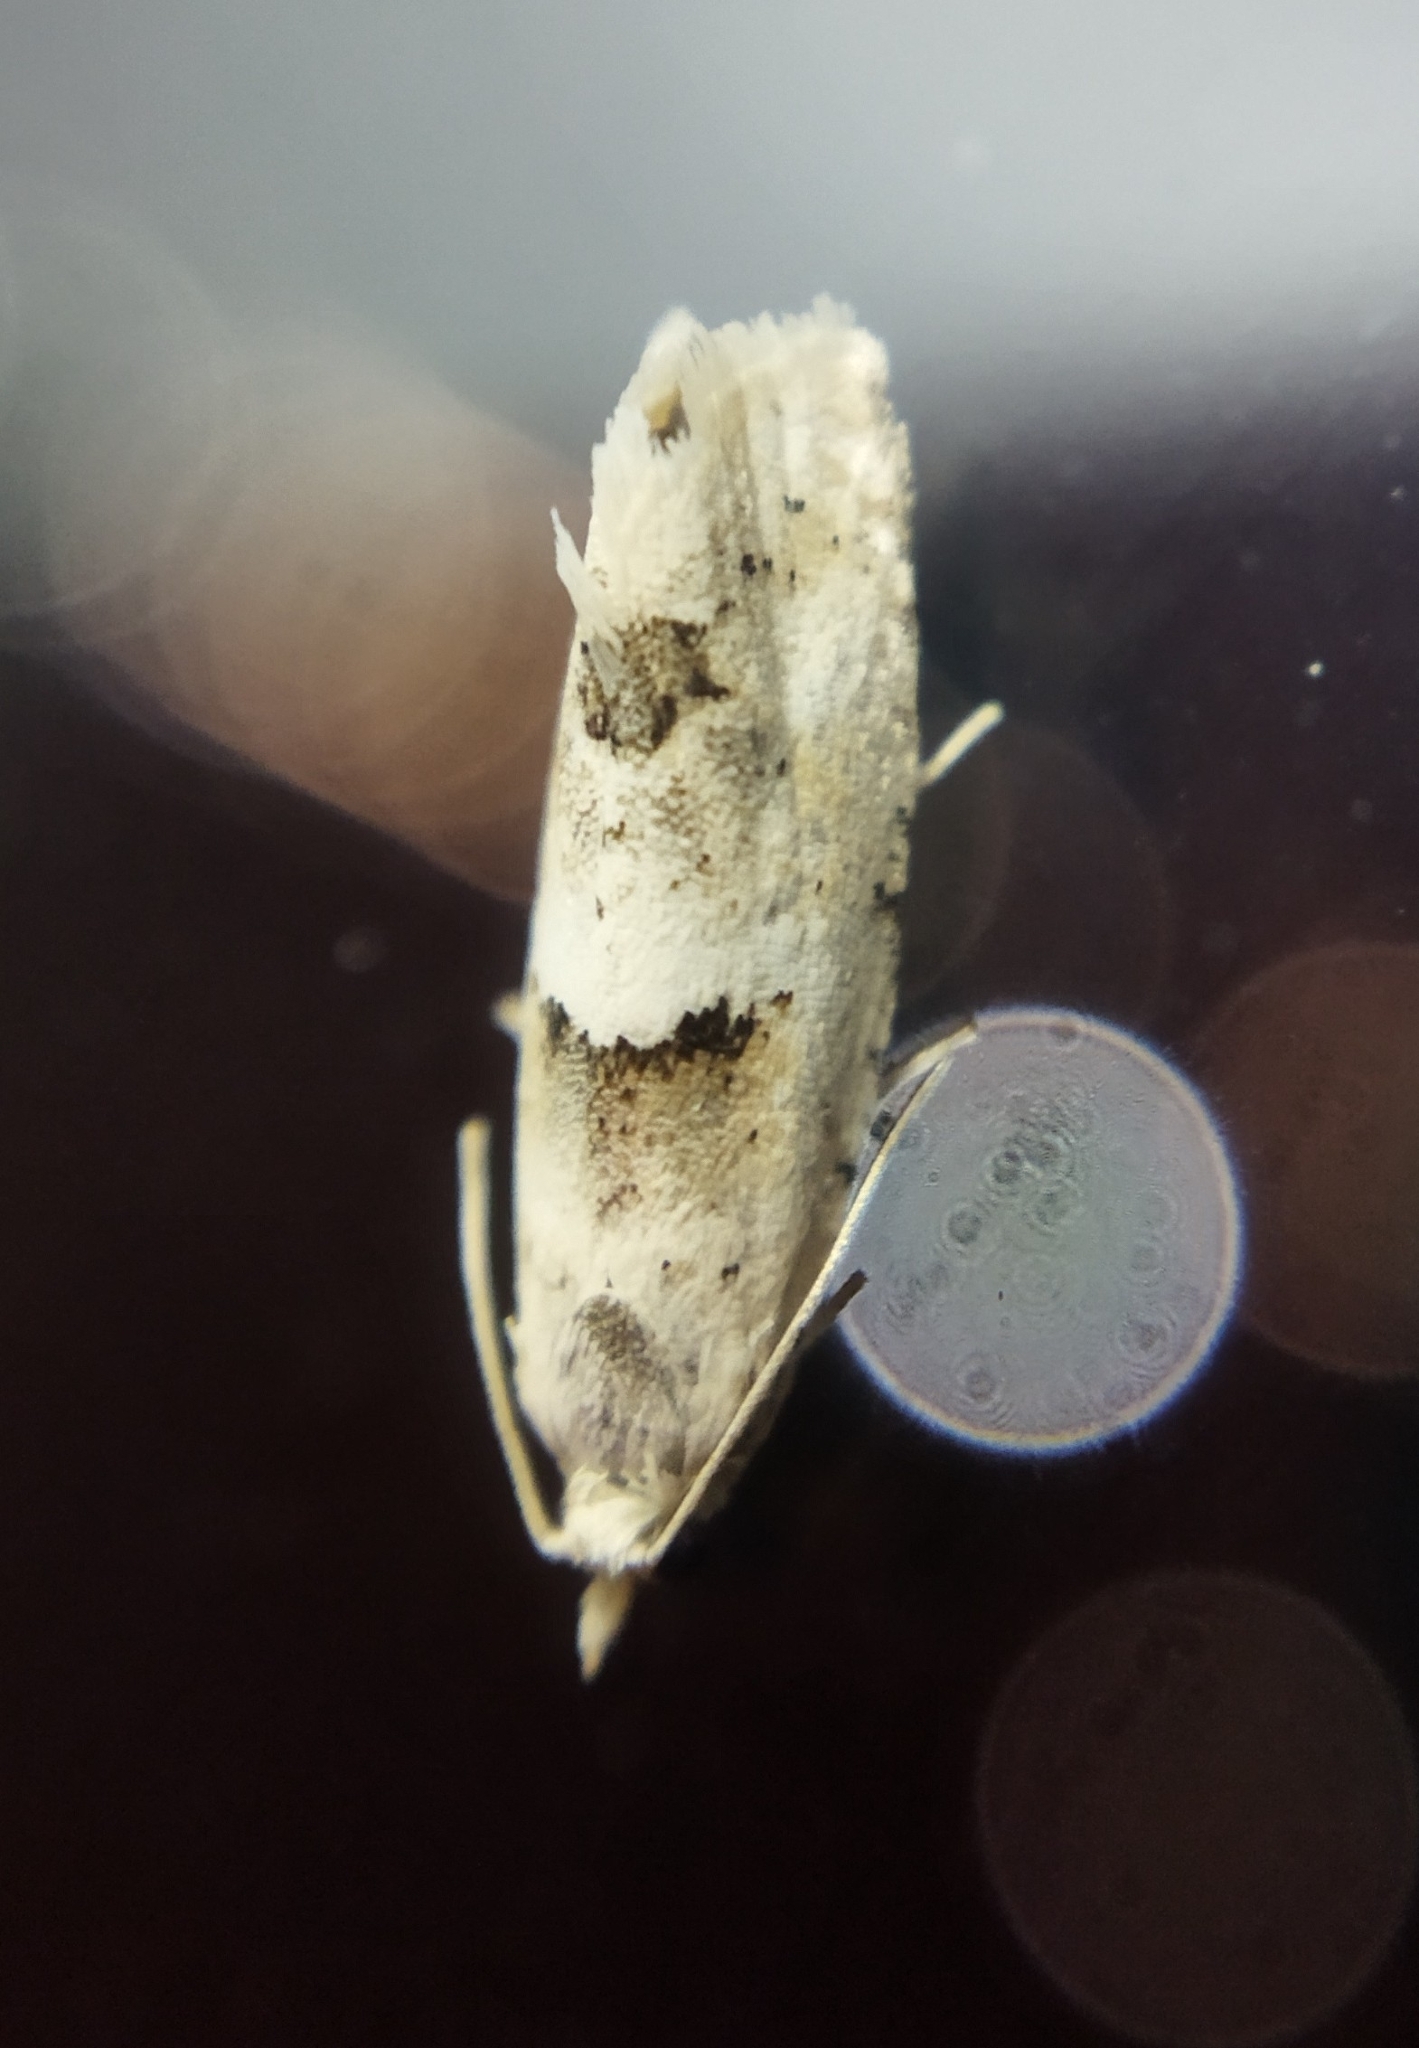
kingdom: Animalia
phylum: Arthropoda
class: Insecta
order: Lepidoptera
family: Tortricidae
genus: Epinotia
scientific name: Epinotia bilunana
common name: Crescent bell
